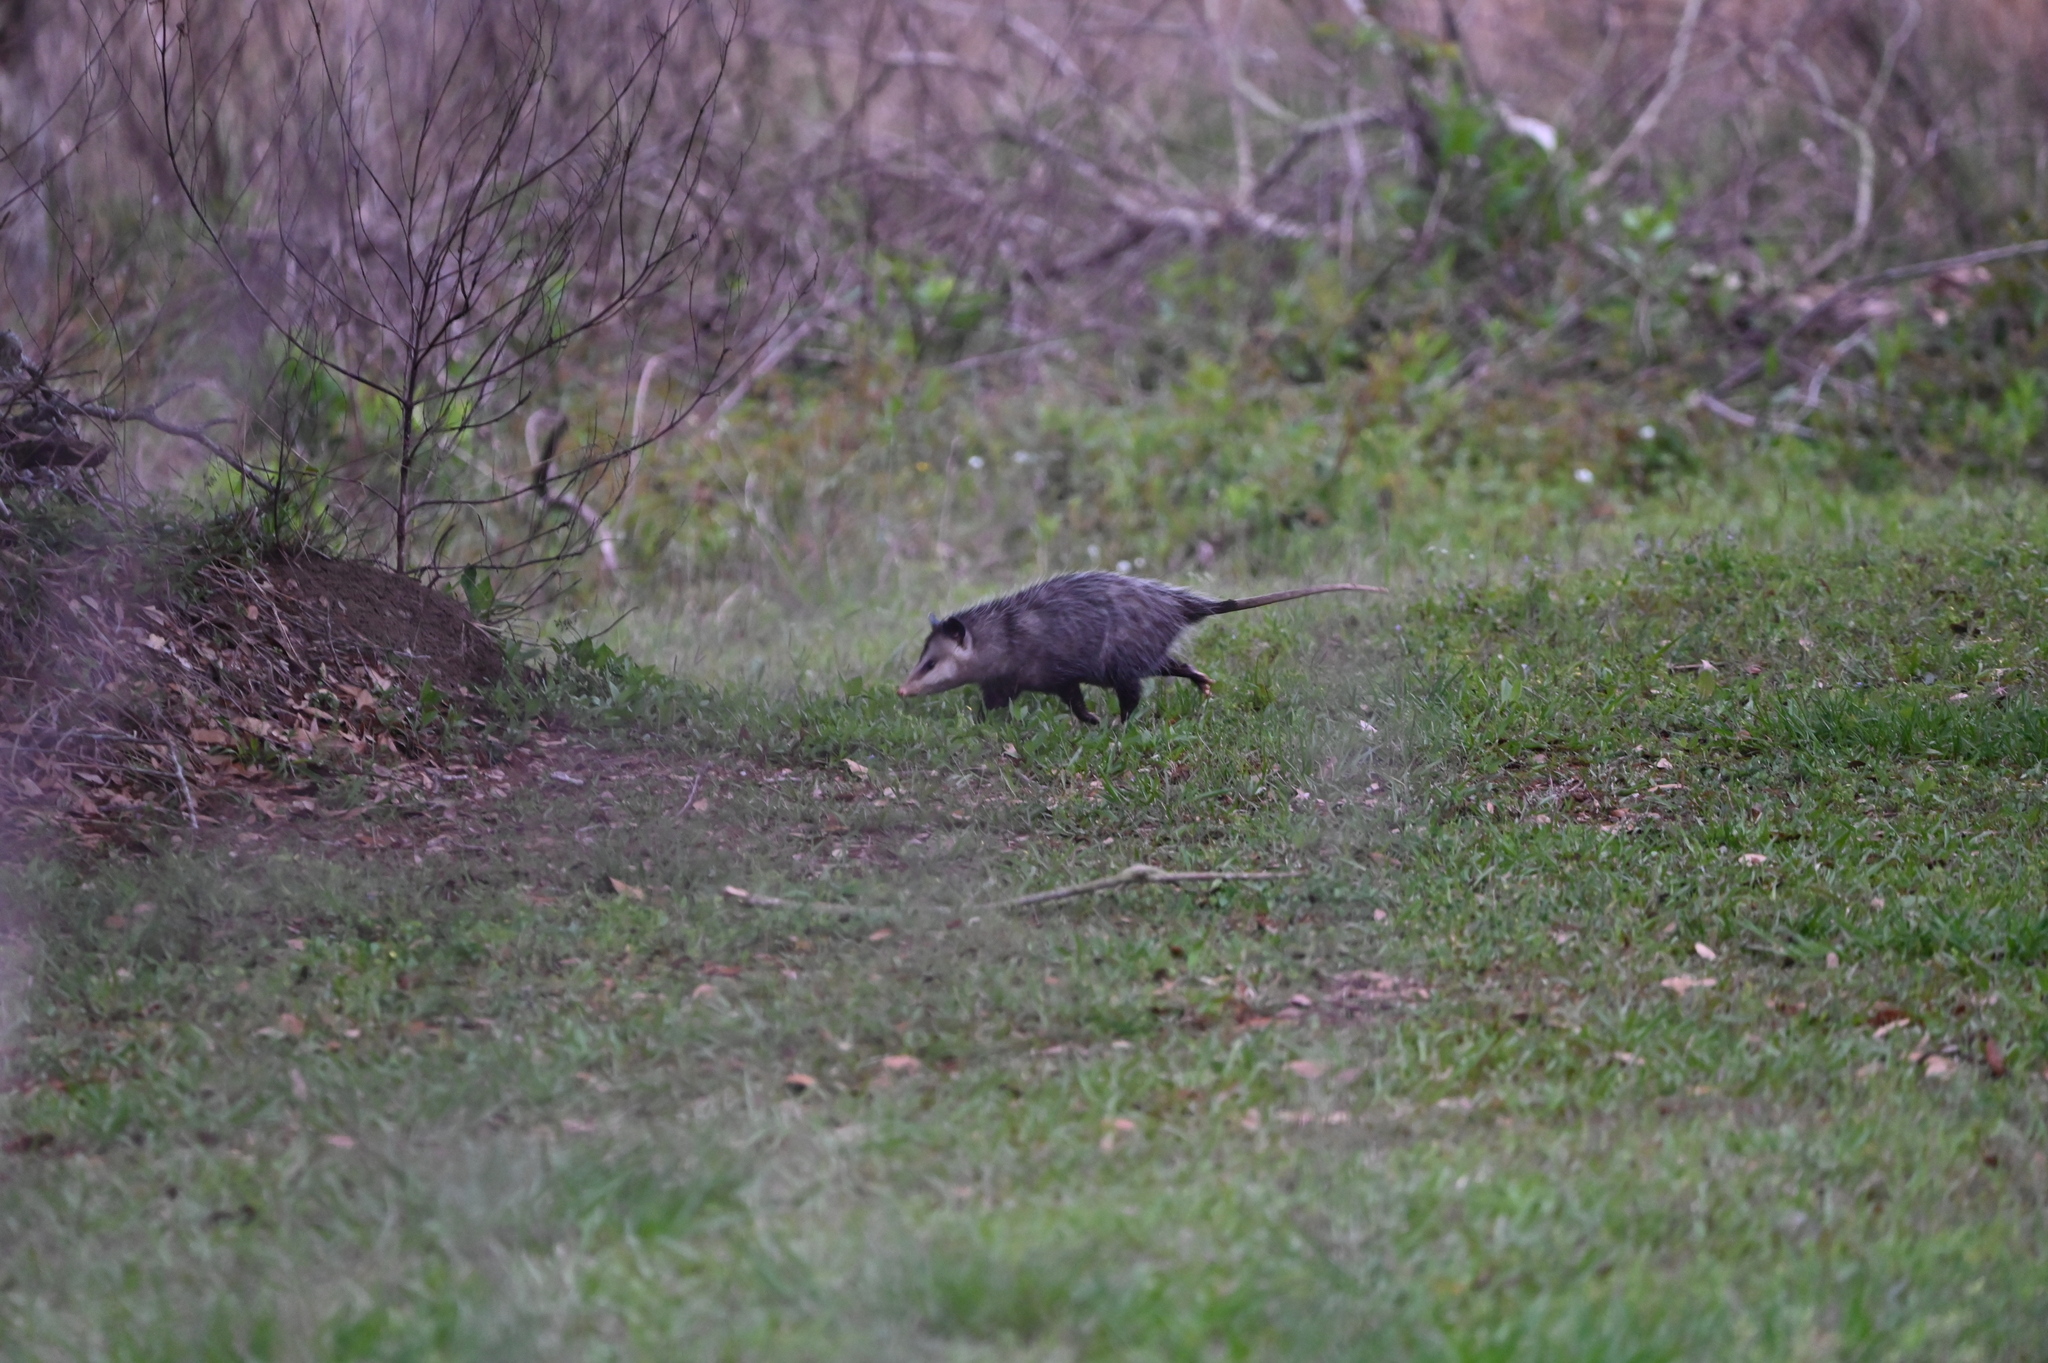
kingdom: Animalia
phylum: Chordata
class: Mammalia
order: Didelphimorphia
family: Didelphidae
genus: Didelphis
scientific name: Didelphis virginiana
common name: Virginia opossum
